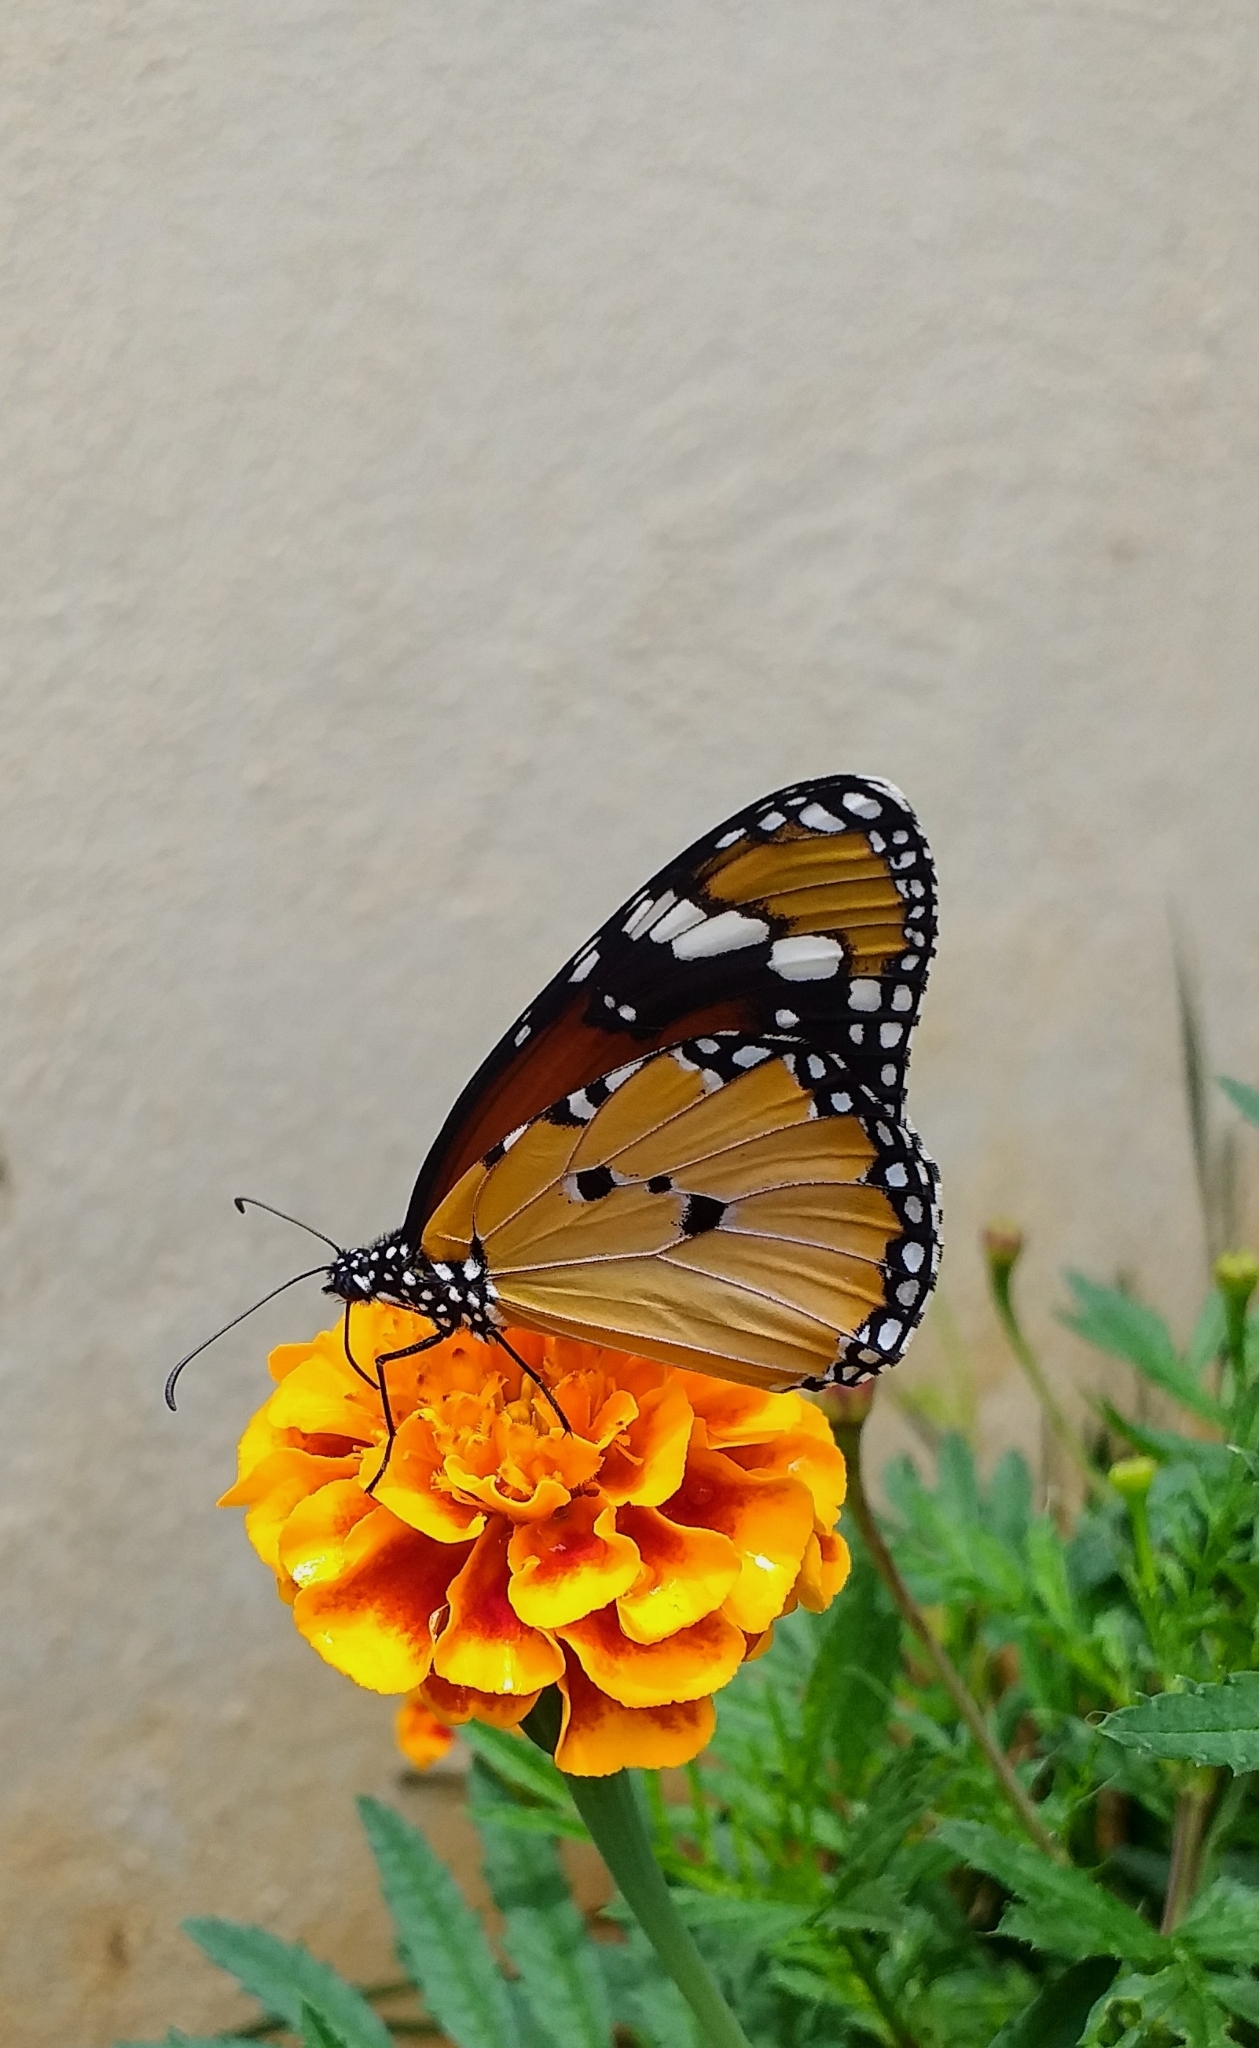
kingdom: Animalia
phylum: Arthropoda
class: Insecta
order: Lepidoptera
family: Nymphalidae
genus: Danaus
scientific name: Danaus chrysippus
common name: Plain tiger
